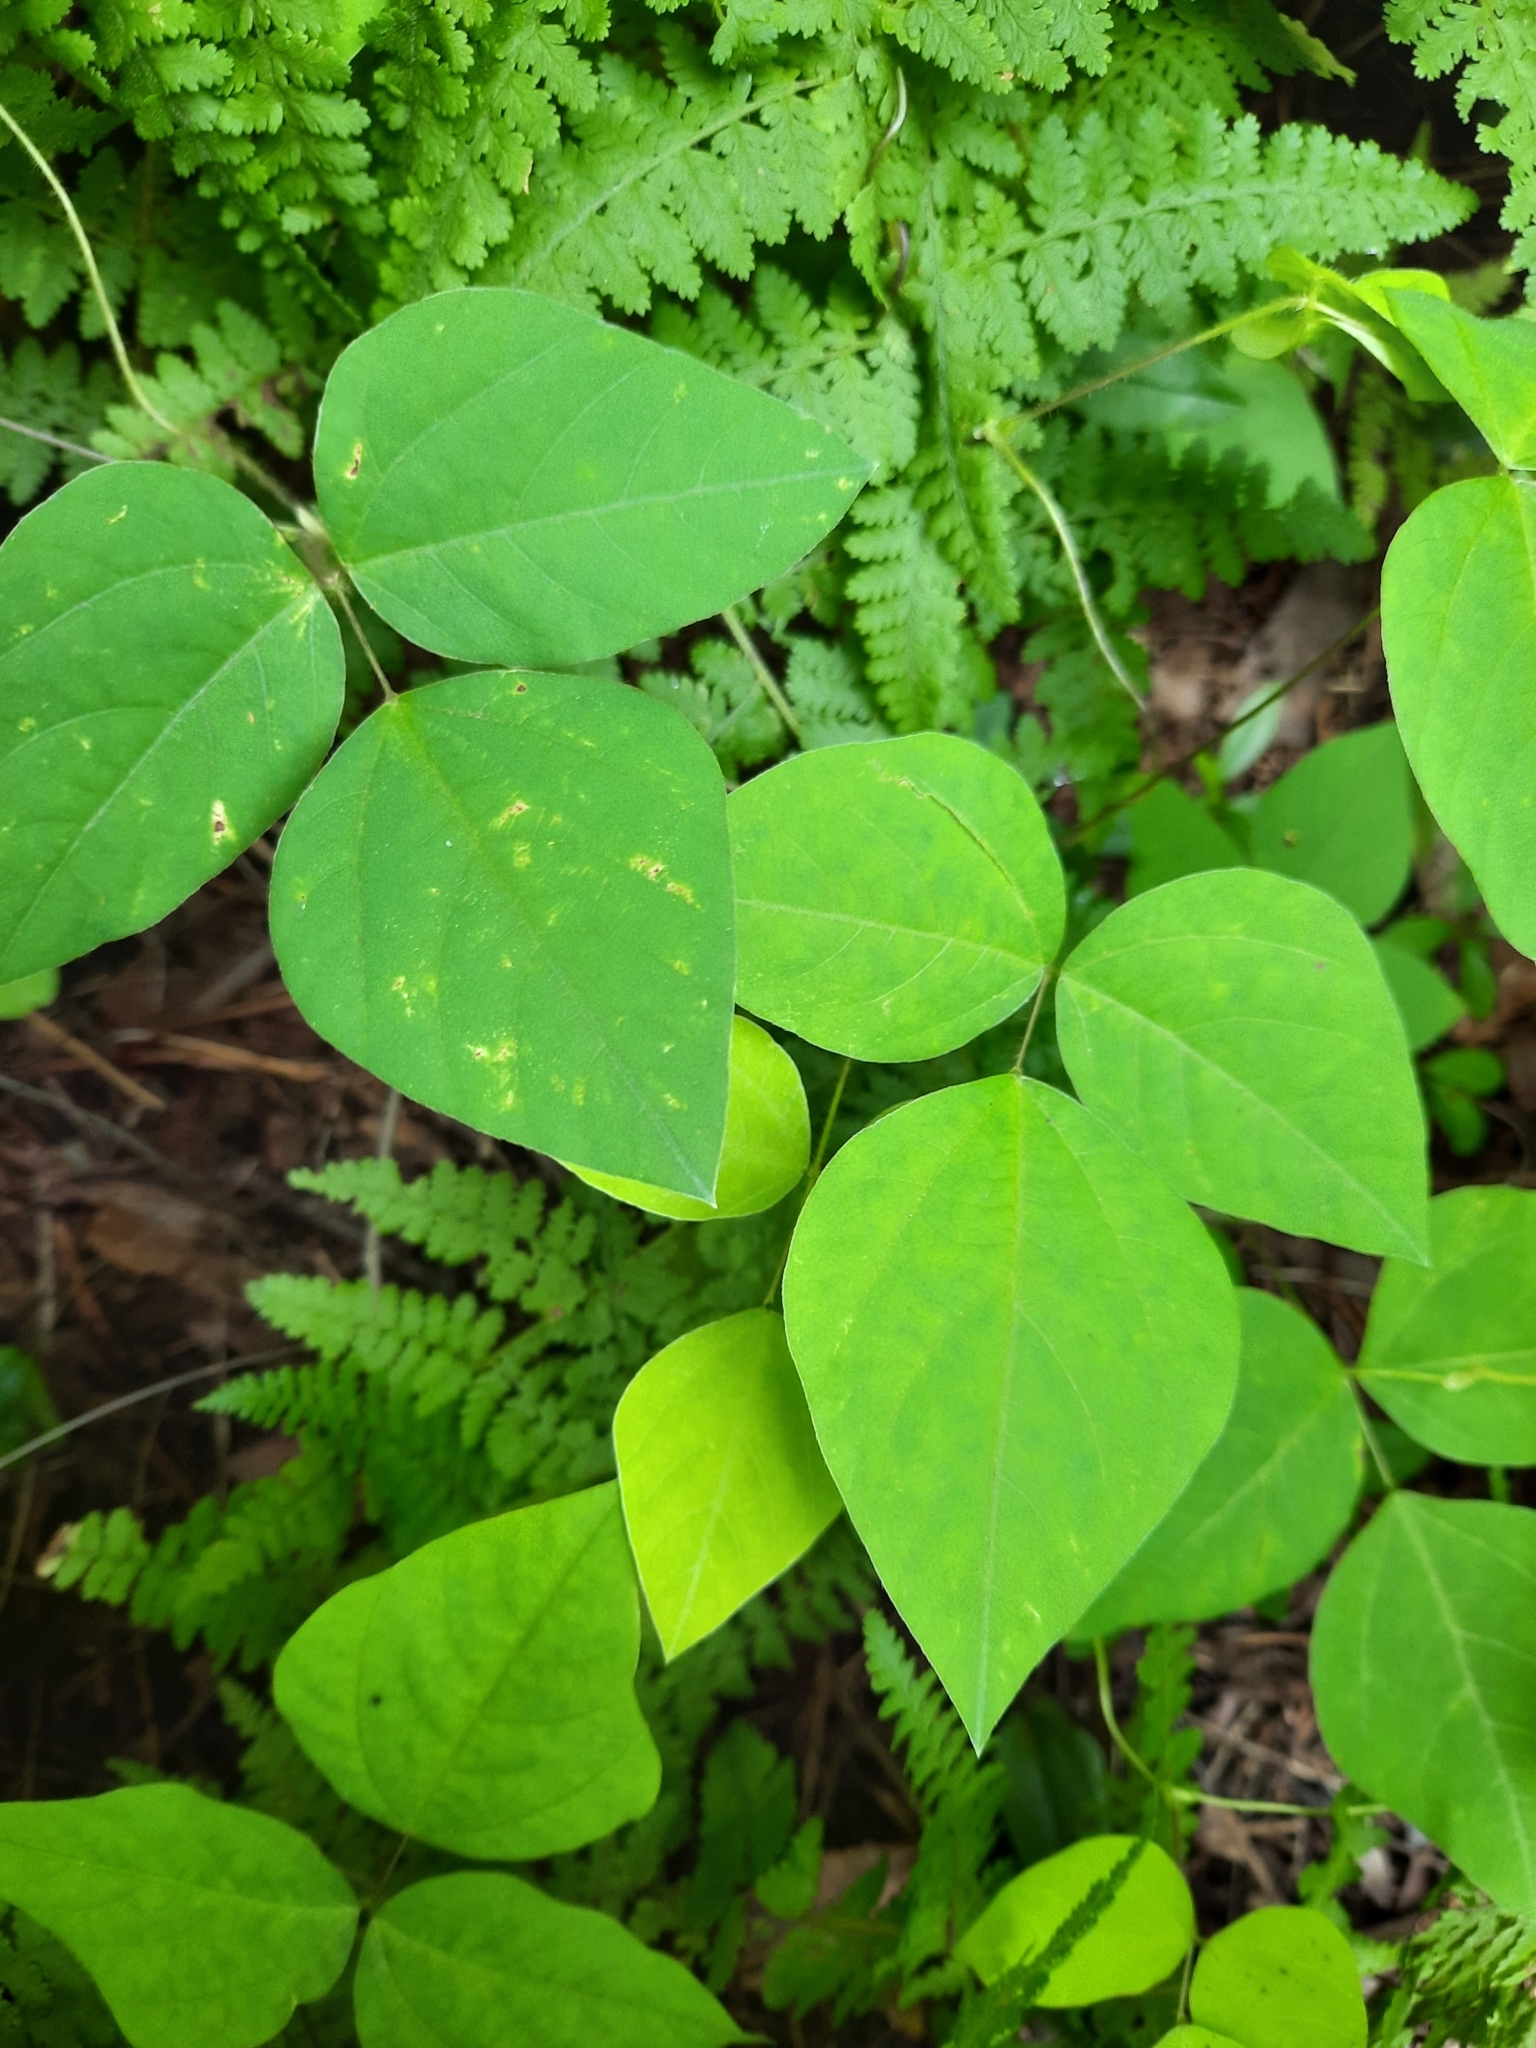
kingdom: Plantae
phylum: Tracheophyta
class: Magnoliopsida
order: Fabales
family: Fabaceae
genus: Amphicarpaea
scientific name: Amphicarpaea bracteata
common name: American hog peanut
